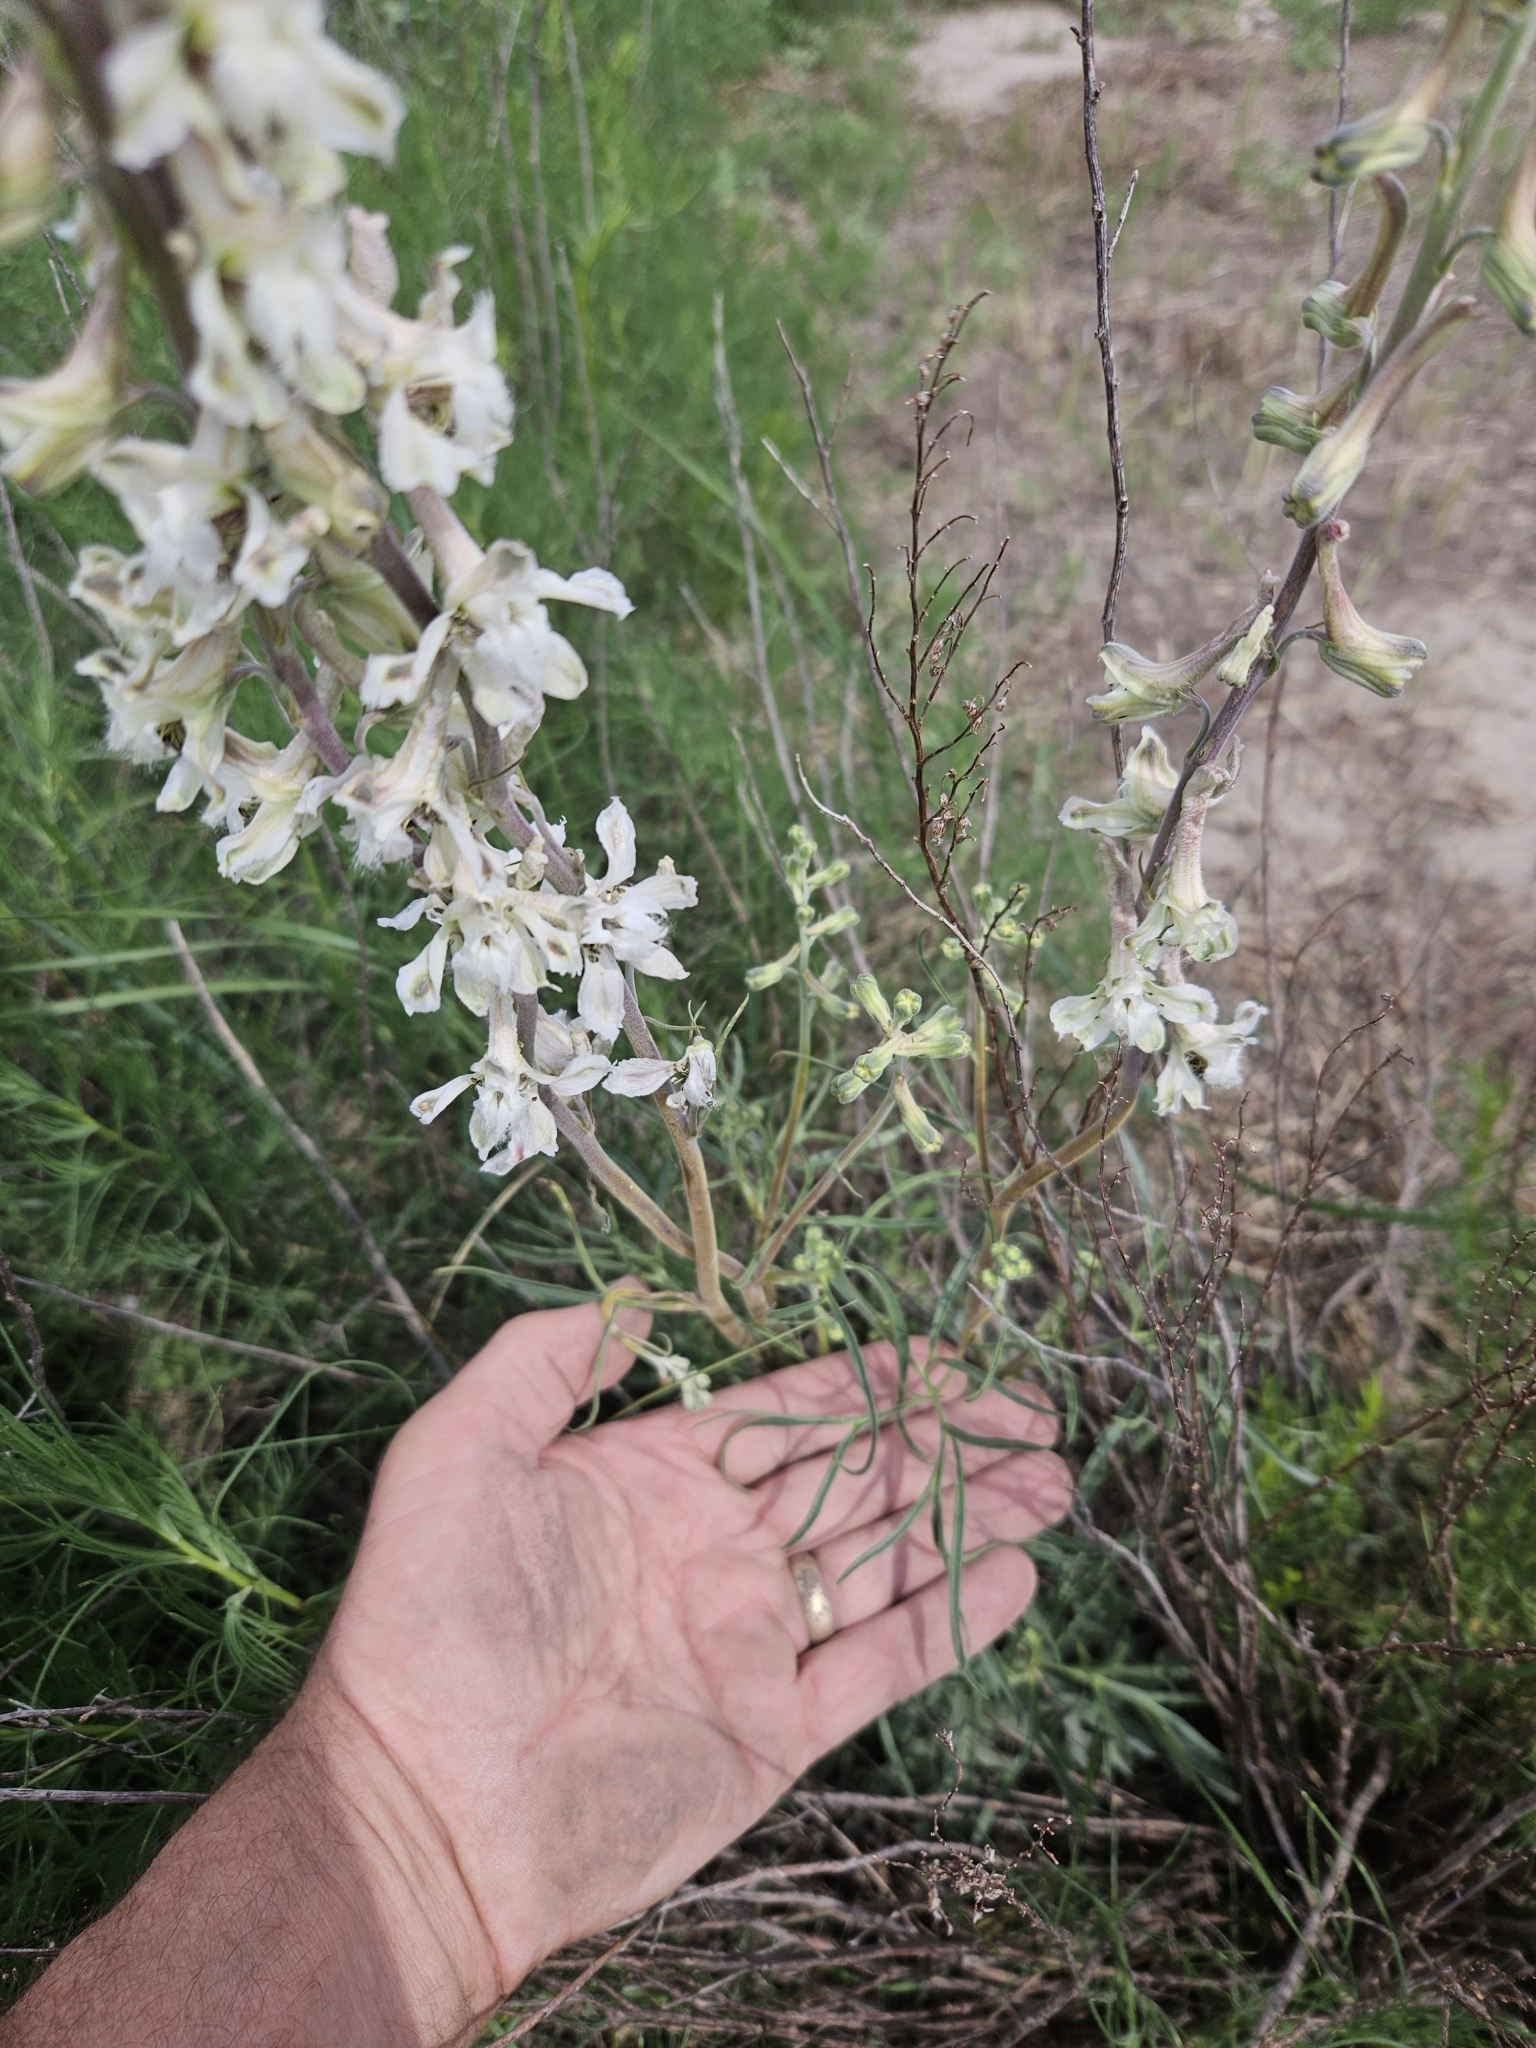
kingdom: Plantae
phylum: Tracheophyta
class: Magnoliopsida
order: Ranunculales
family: Ranunculaceae
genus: Delphinium
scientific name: Delphinium carolinianum
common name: Carolina larkspur
